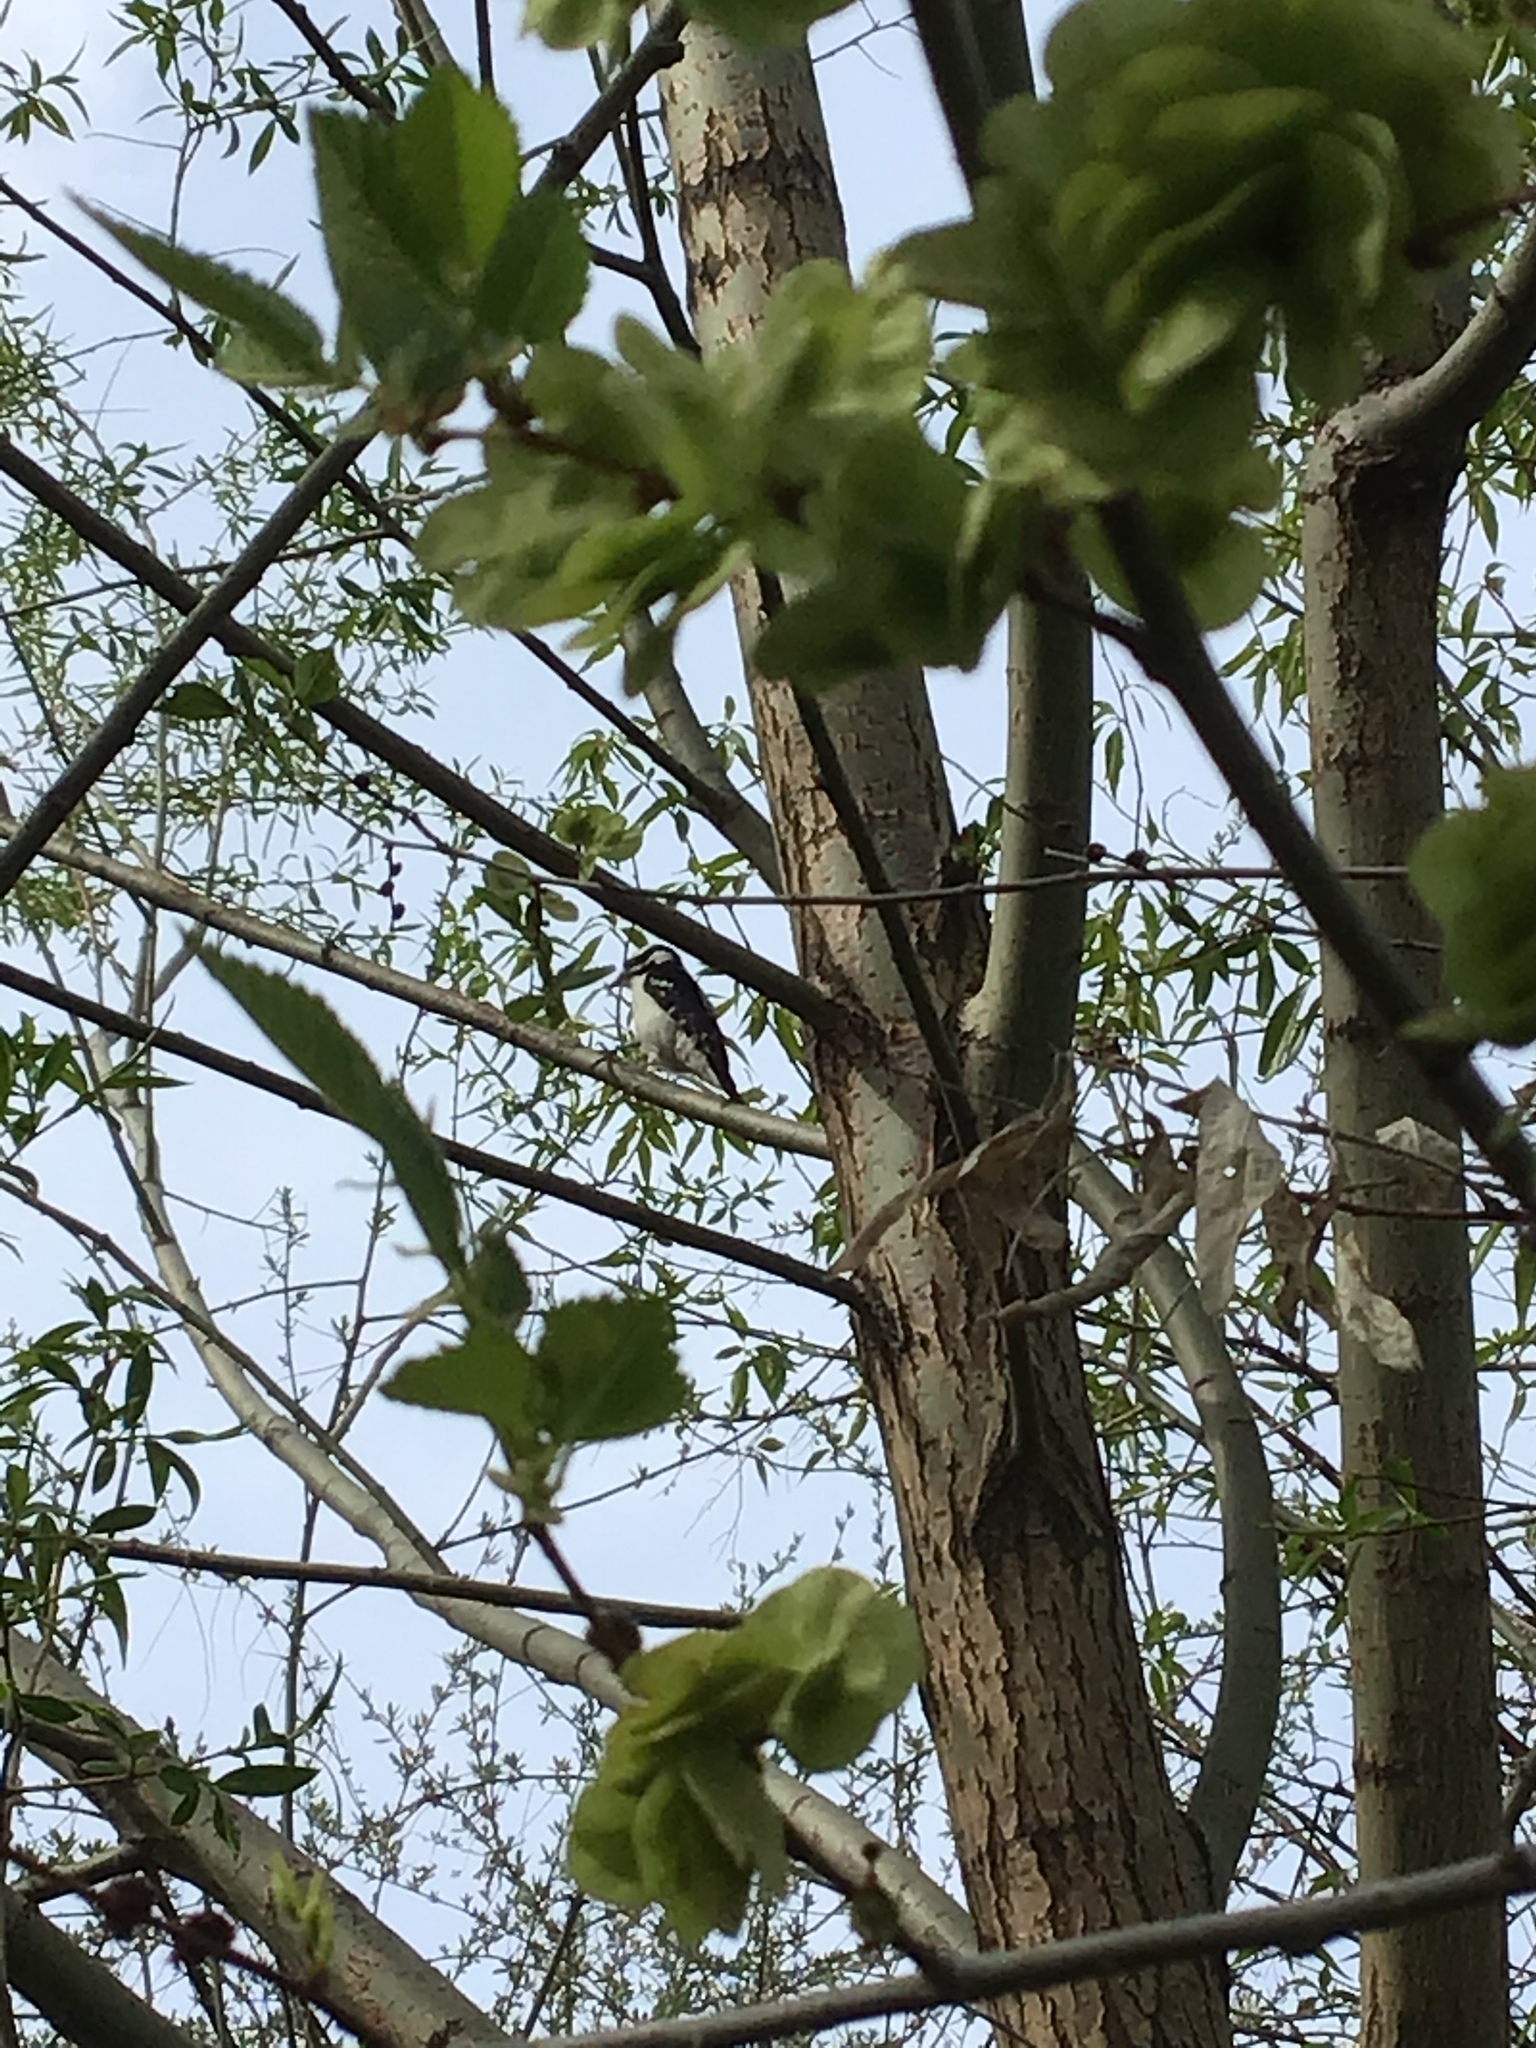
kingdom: Animalia
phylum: Chordata
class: Aves
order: Piciformes
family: Picidae
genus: Dryobates
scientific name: Dryobates pubescens
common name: Downy woodpecker
